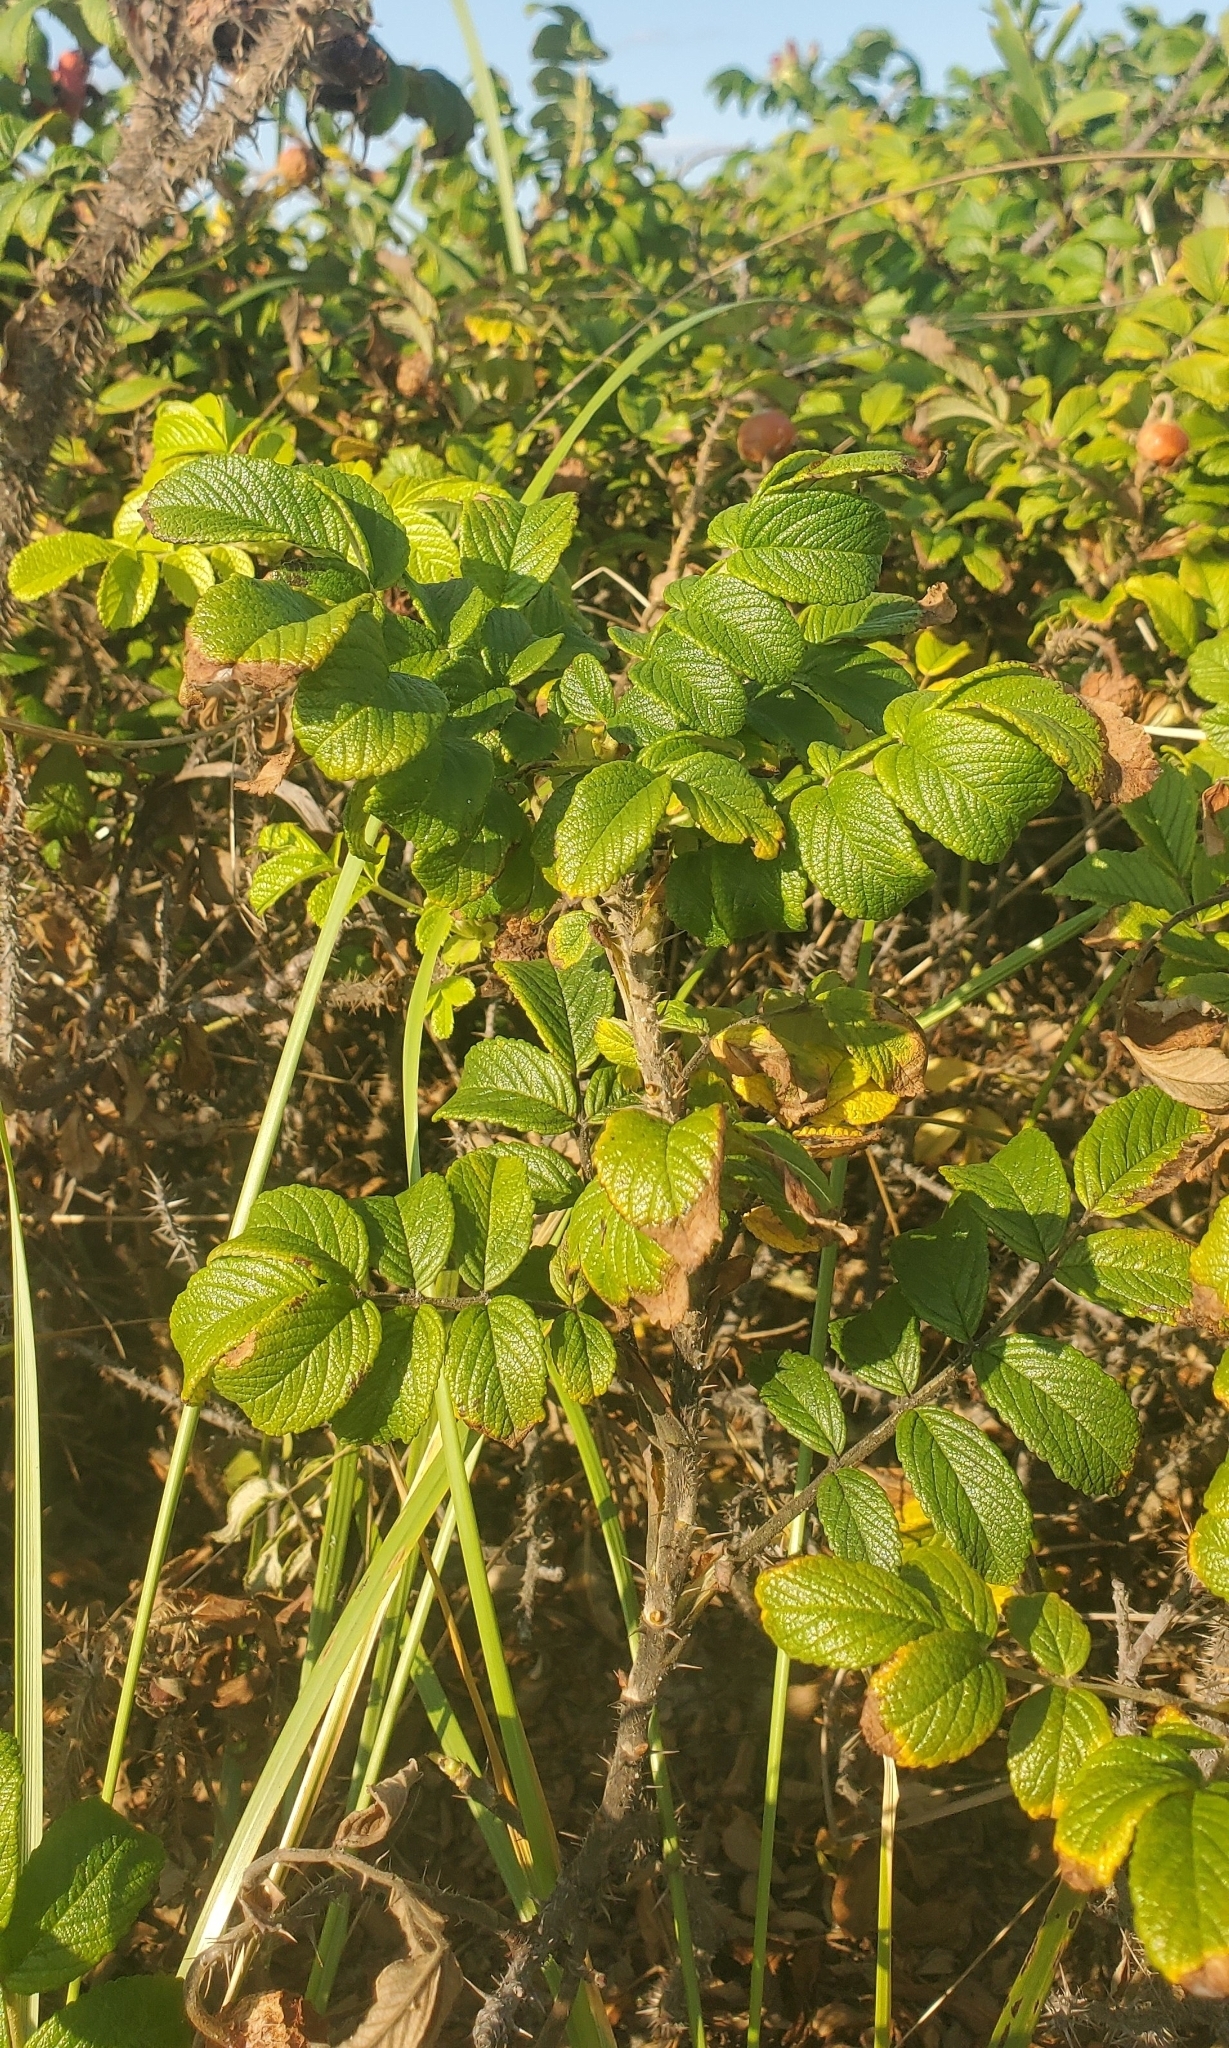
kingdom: Plantae
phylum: Tracheophyta
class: Magnoliopsida
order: Rosales
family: Rosaceae
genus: Rosa
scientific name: Rosa rugosa
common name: Japanese rose
